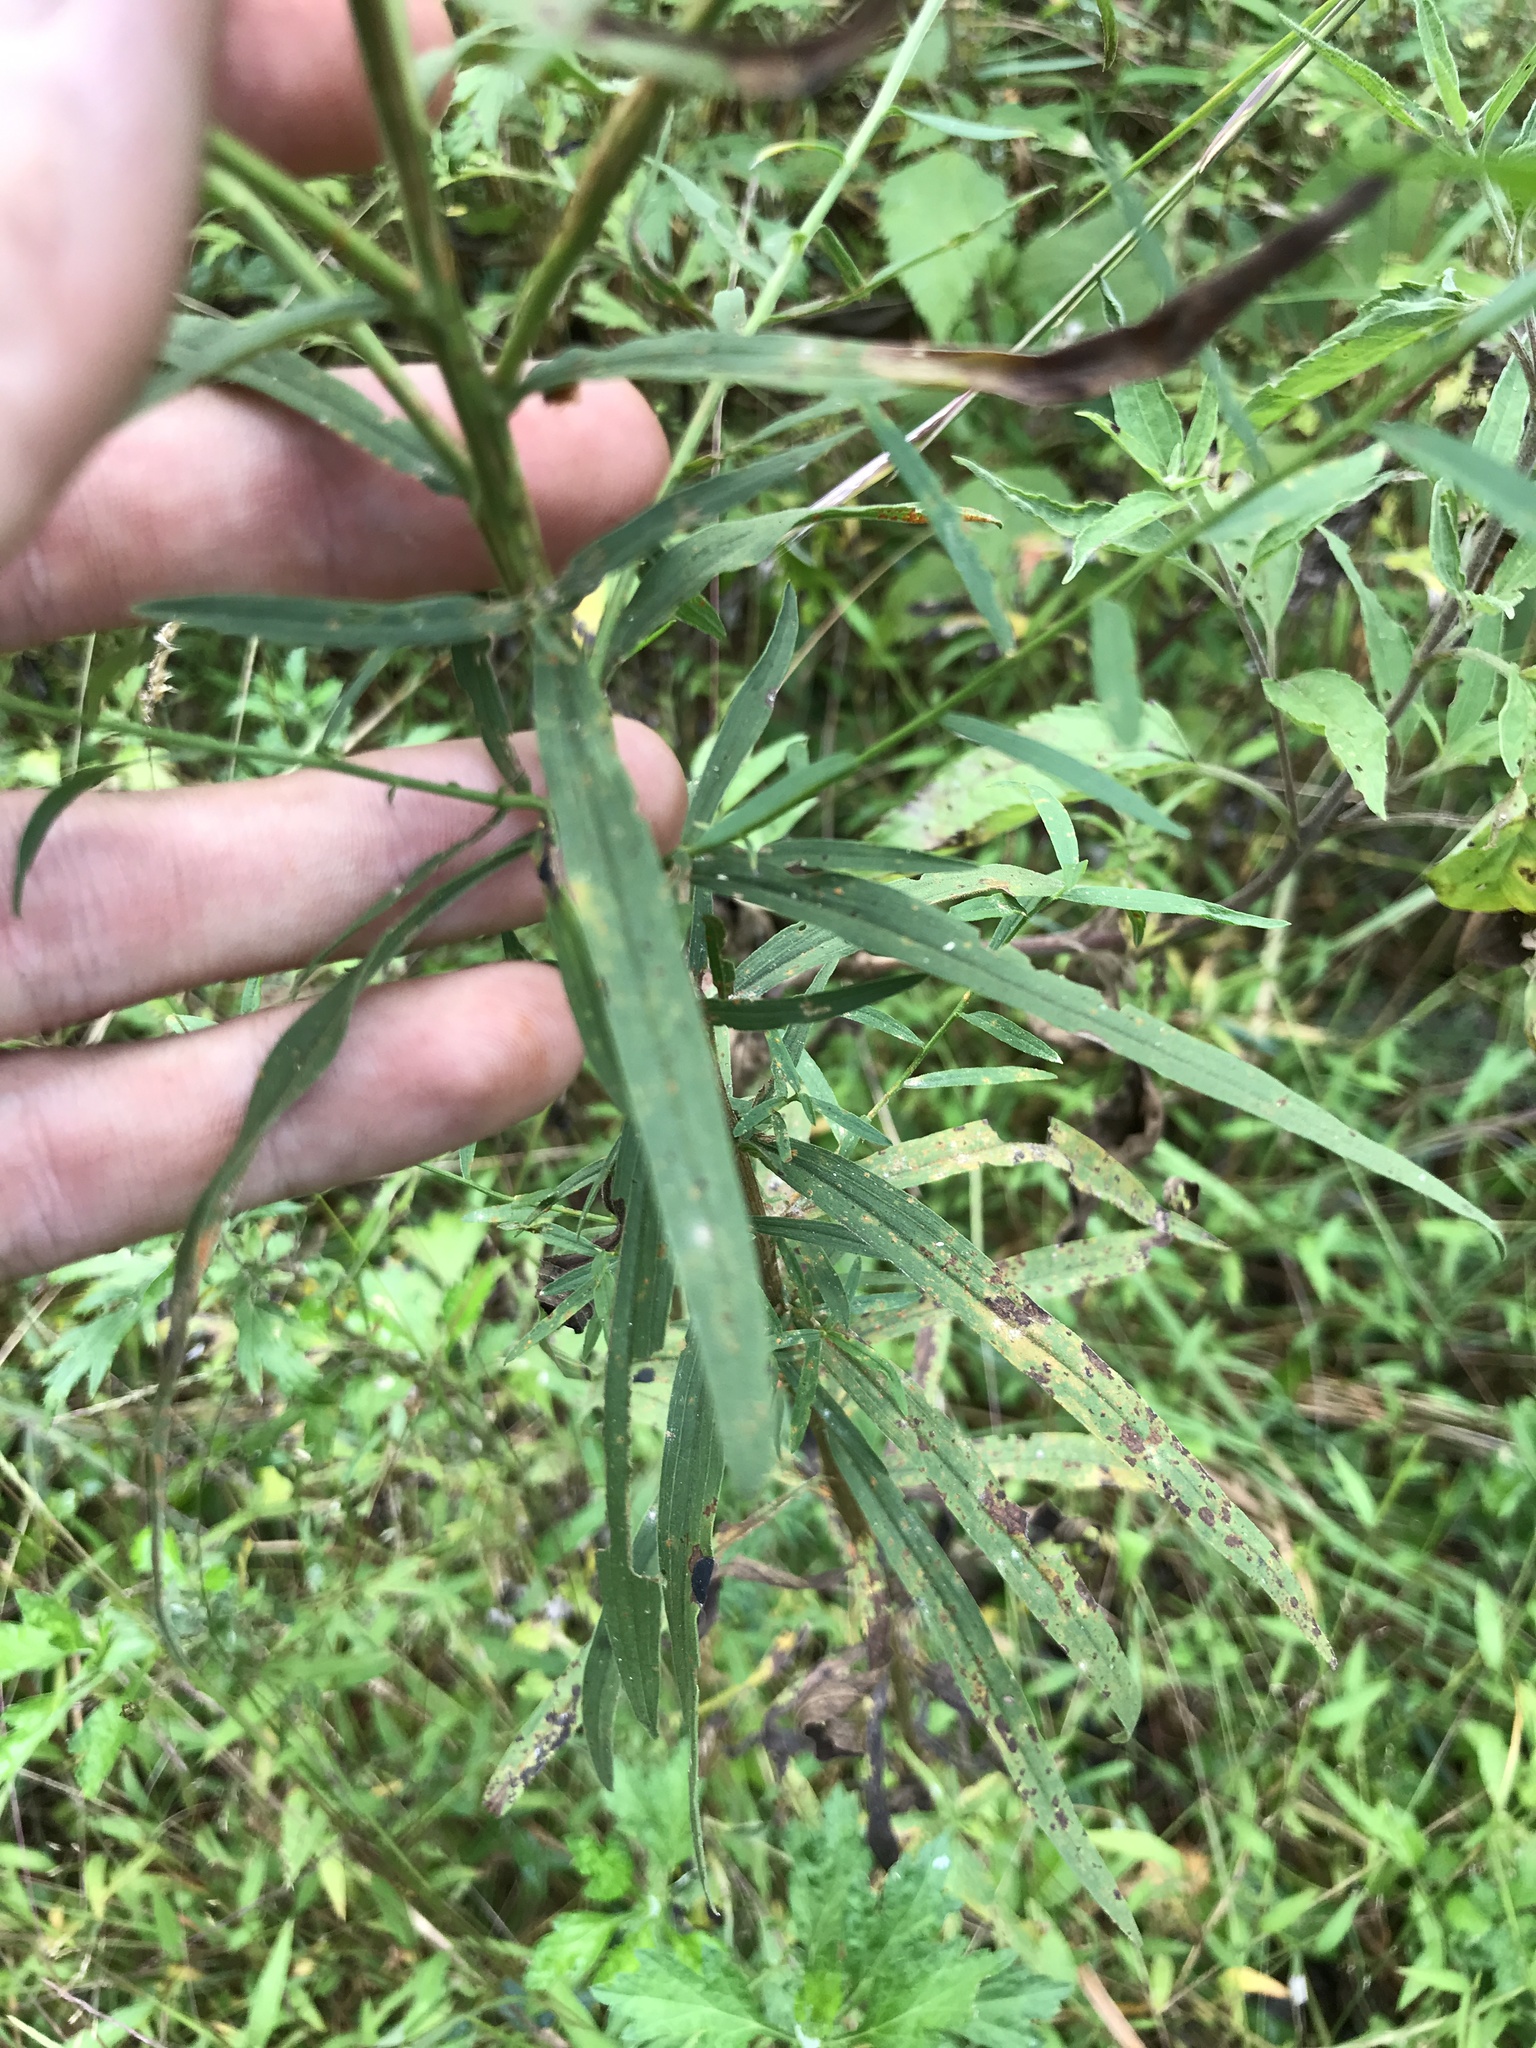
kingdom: Plantae
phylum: Tracheophyta
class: Magnoliopsida
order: Asterales
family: Asteraceae
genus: Euthamia
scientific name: Euthamia graminifolia
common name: Common goldentop
